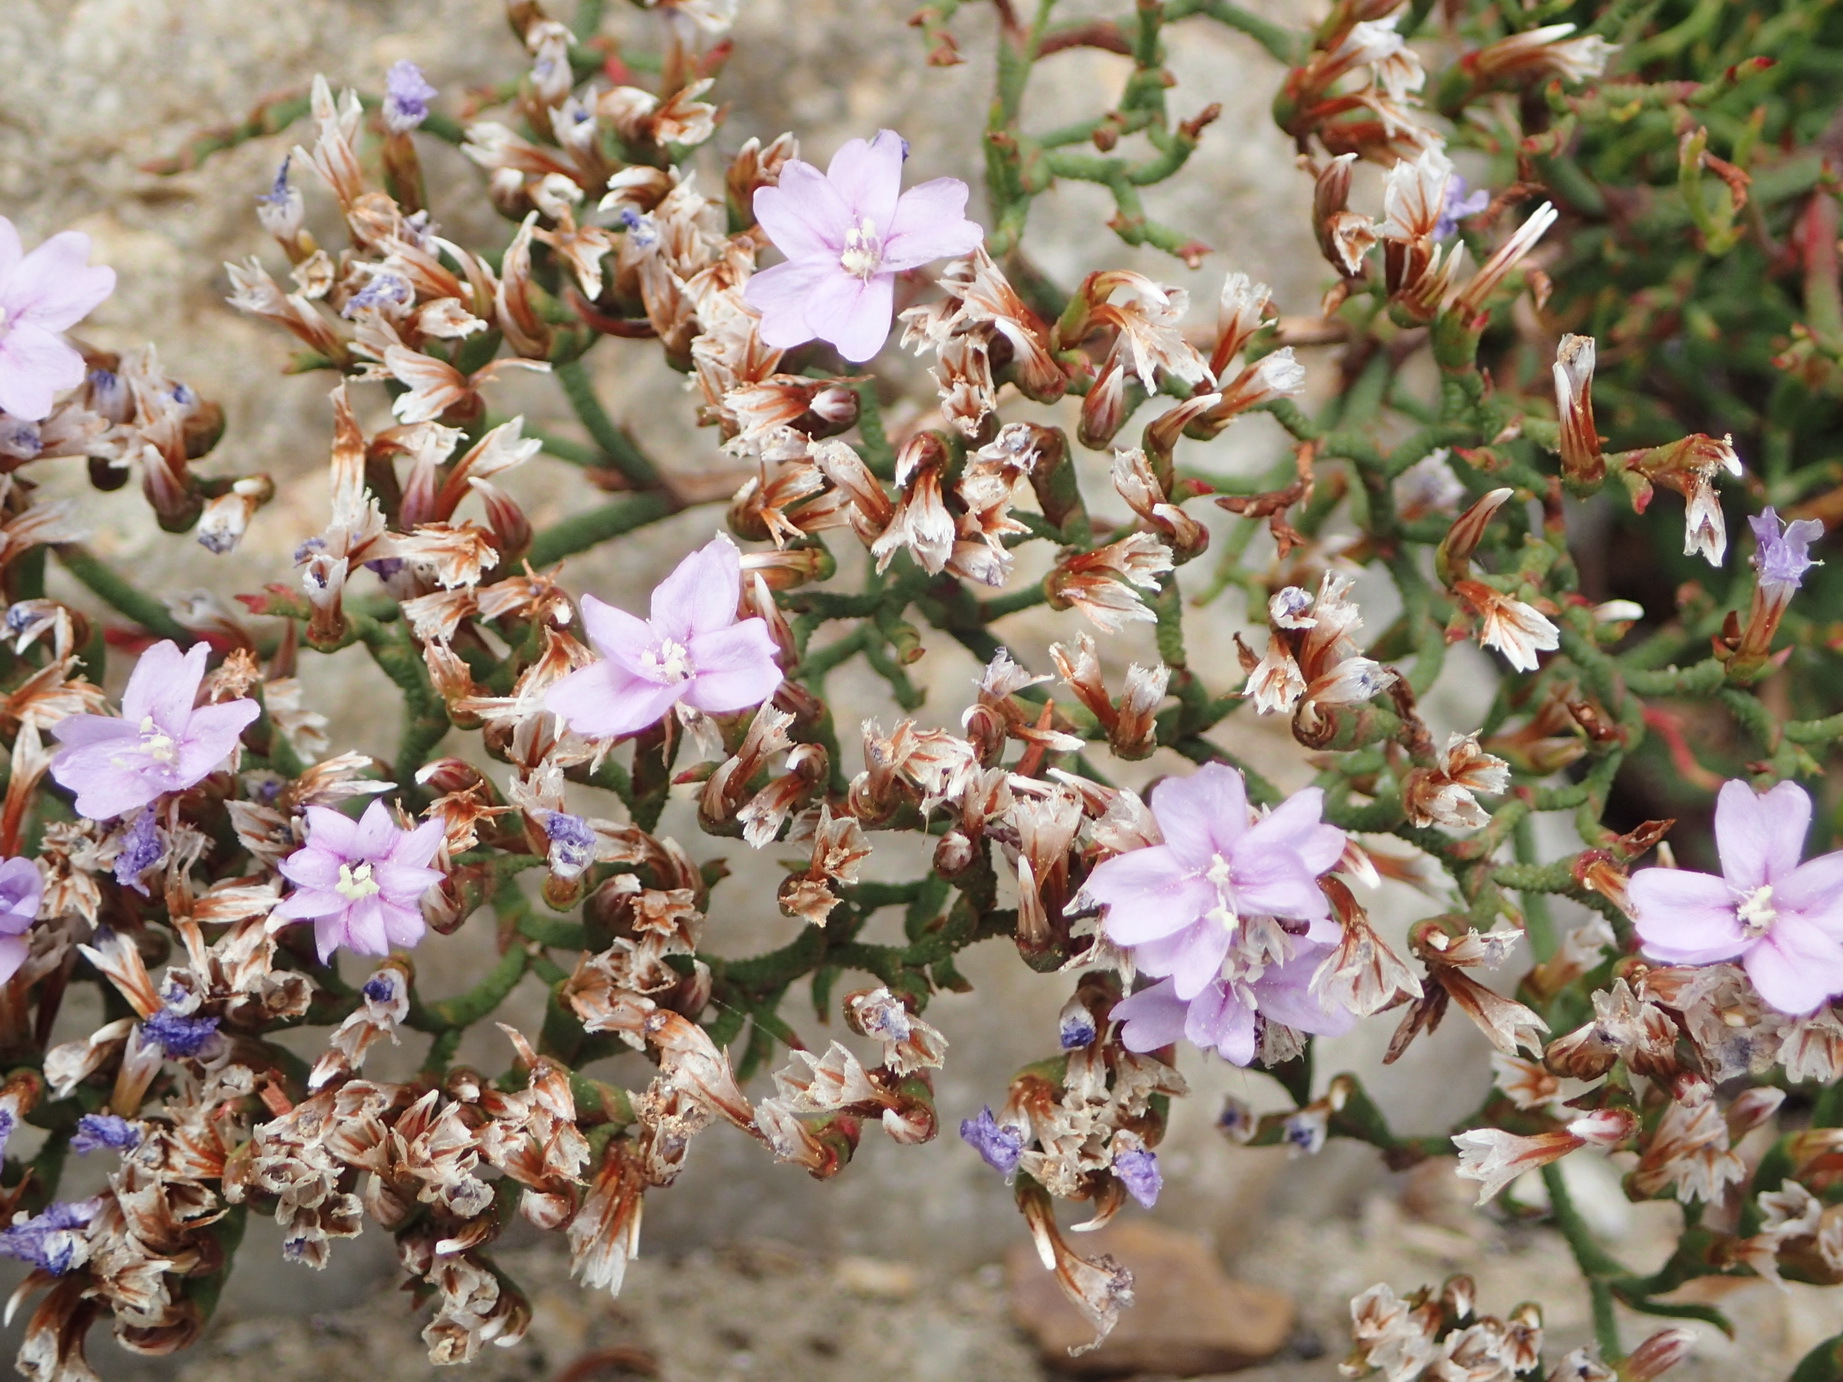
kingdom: Plantae
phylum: Tracheophyta
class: Magnoliopsida
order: Caryophyllales
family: Plumbaginaceae
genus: Limonium
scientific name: Limonium scabrum
